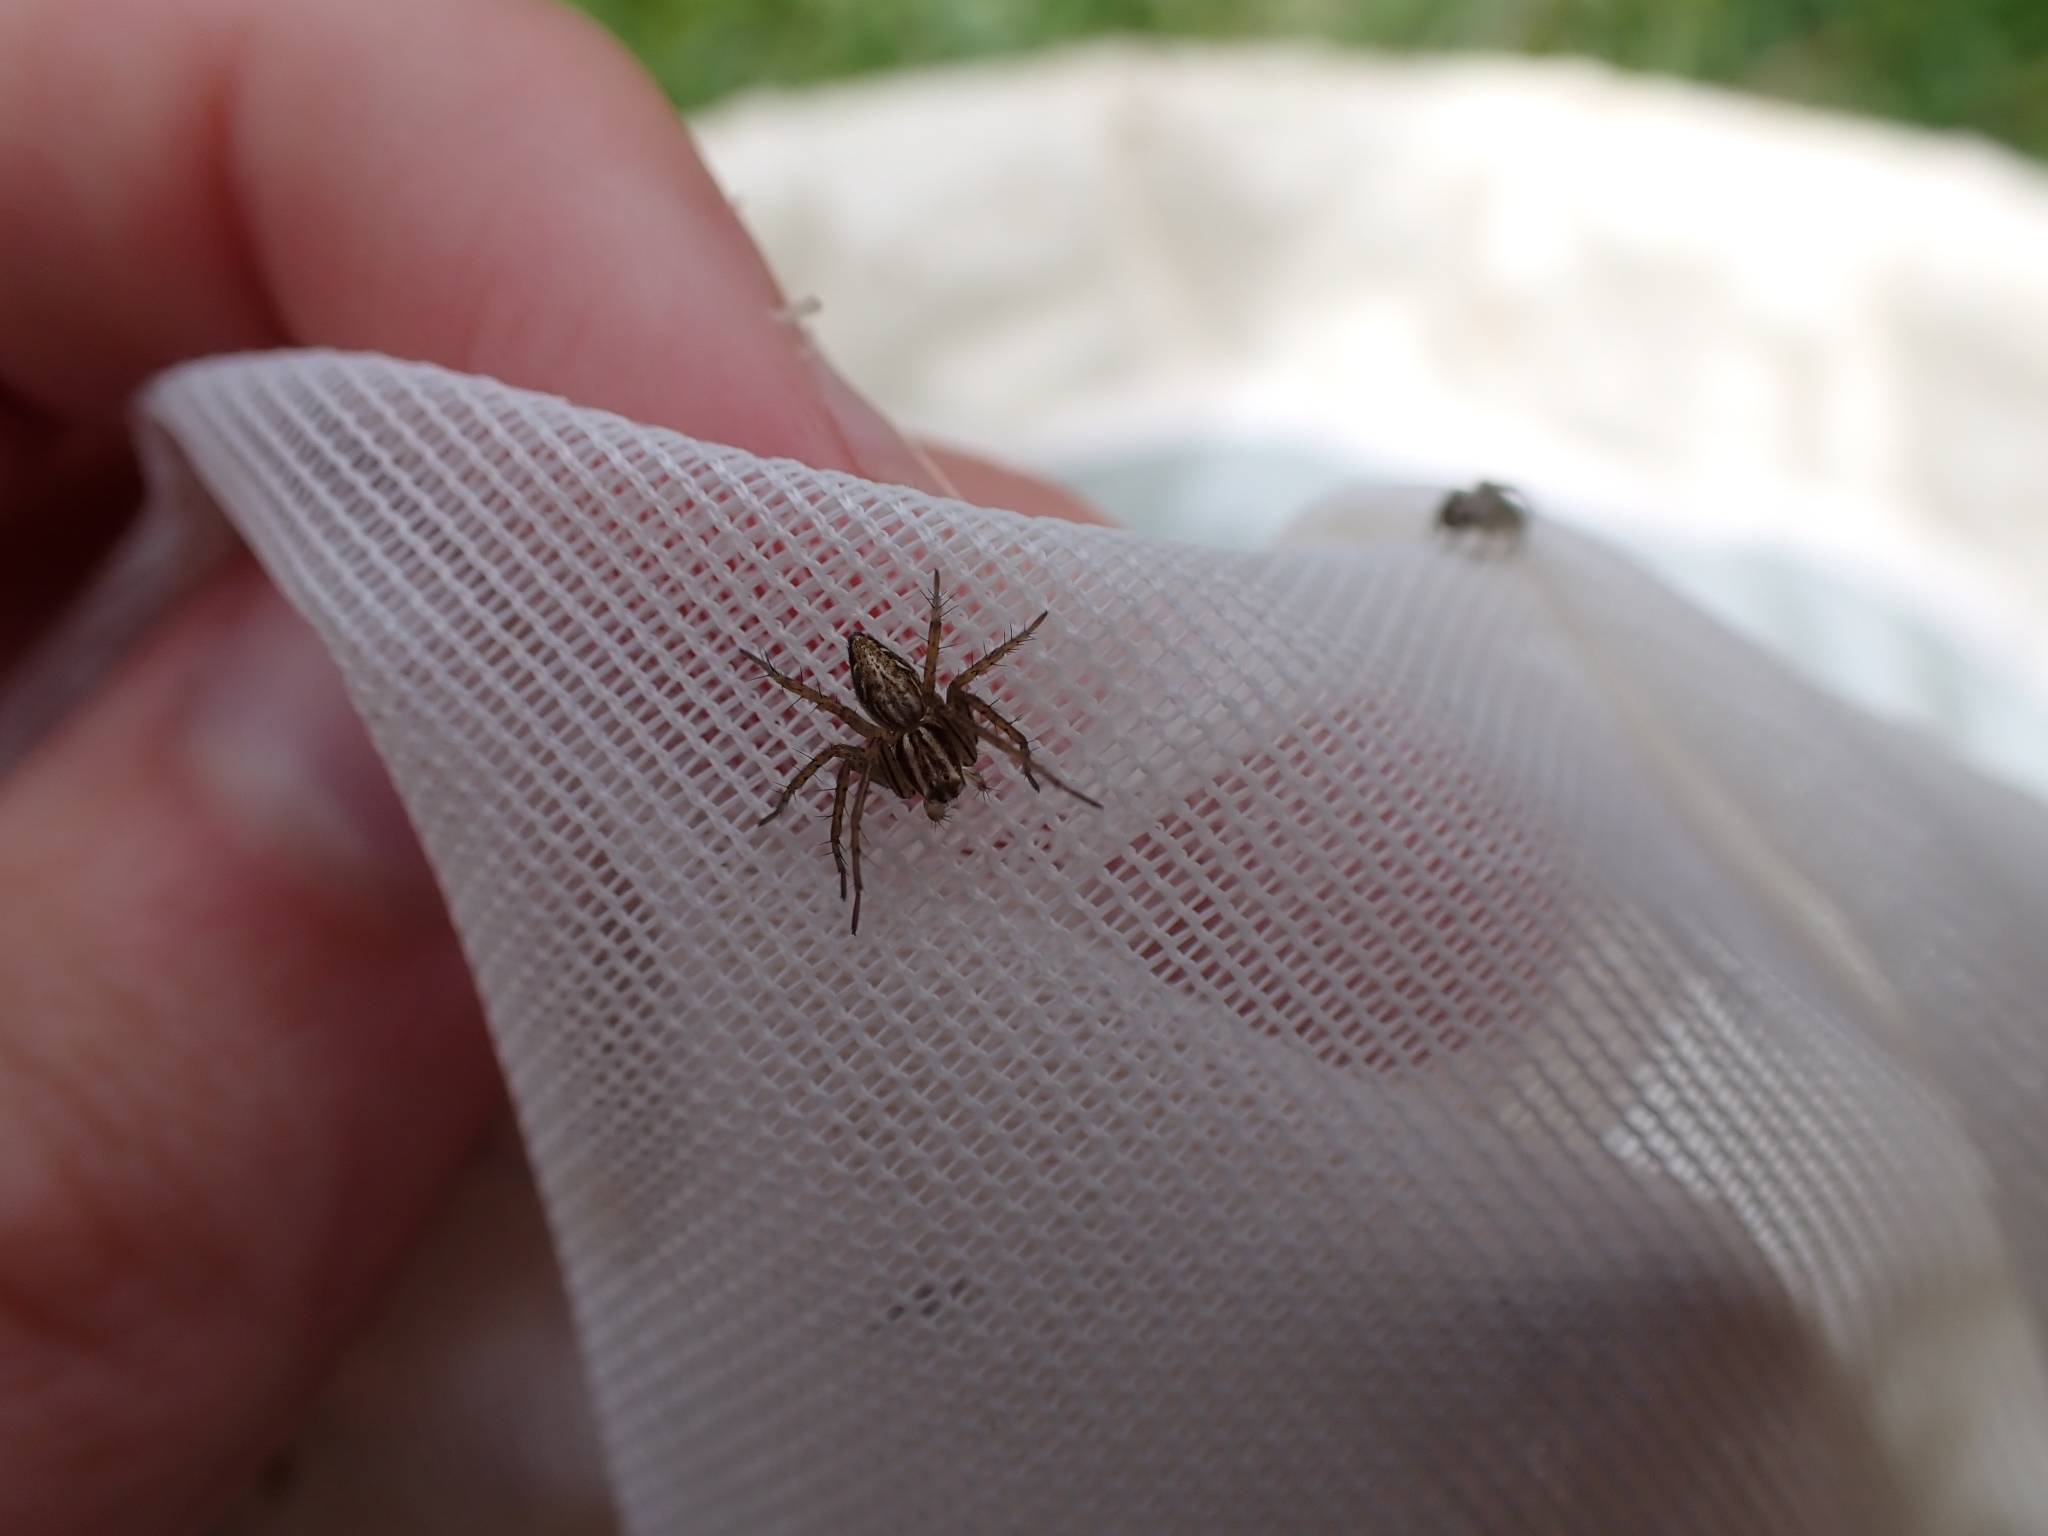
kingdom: Animalia
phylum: Arthropoda
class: Arachnida
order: Araneae
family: Oxyopidae
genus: Oxyopes
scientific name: Oxyopes gracilipes
